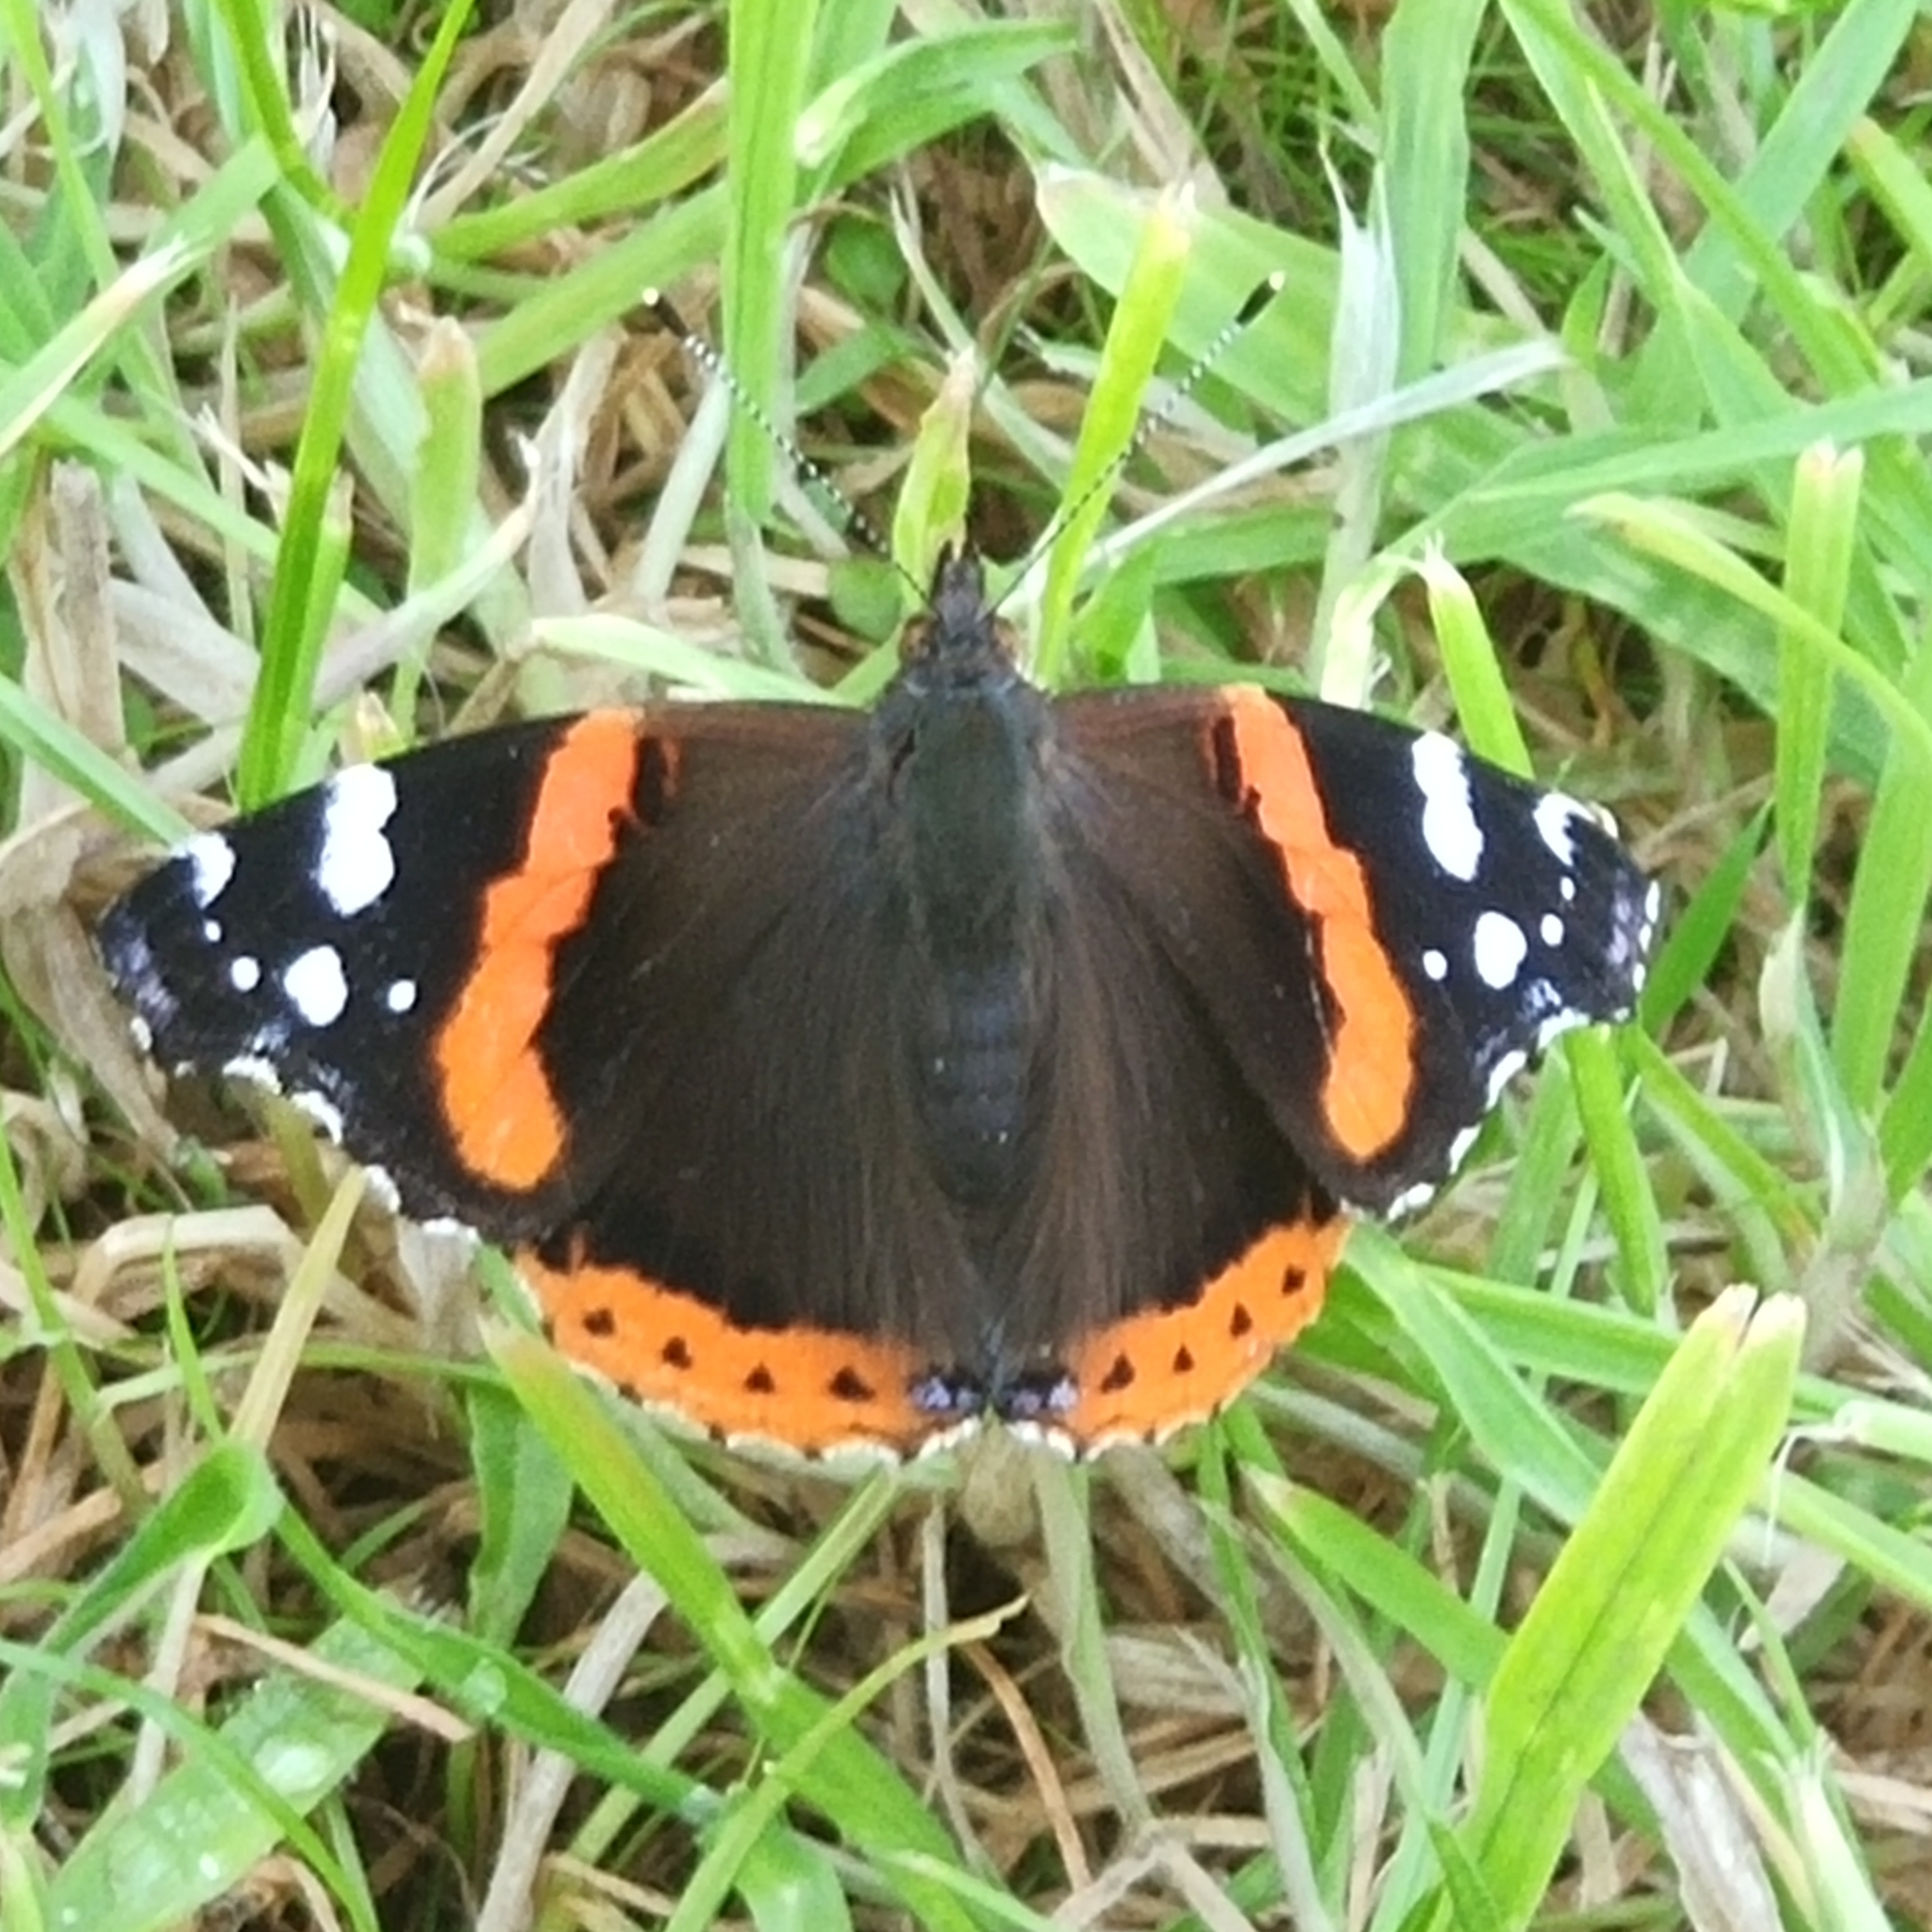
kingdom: Animalia
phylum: Arthropoda
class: Insecta
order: Lepidoptera
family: Nymphalidae
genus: Vanessa
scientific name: Vanessa atalanta
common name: Red admiral
